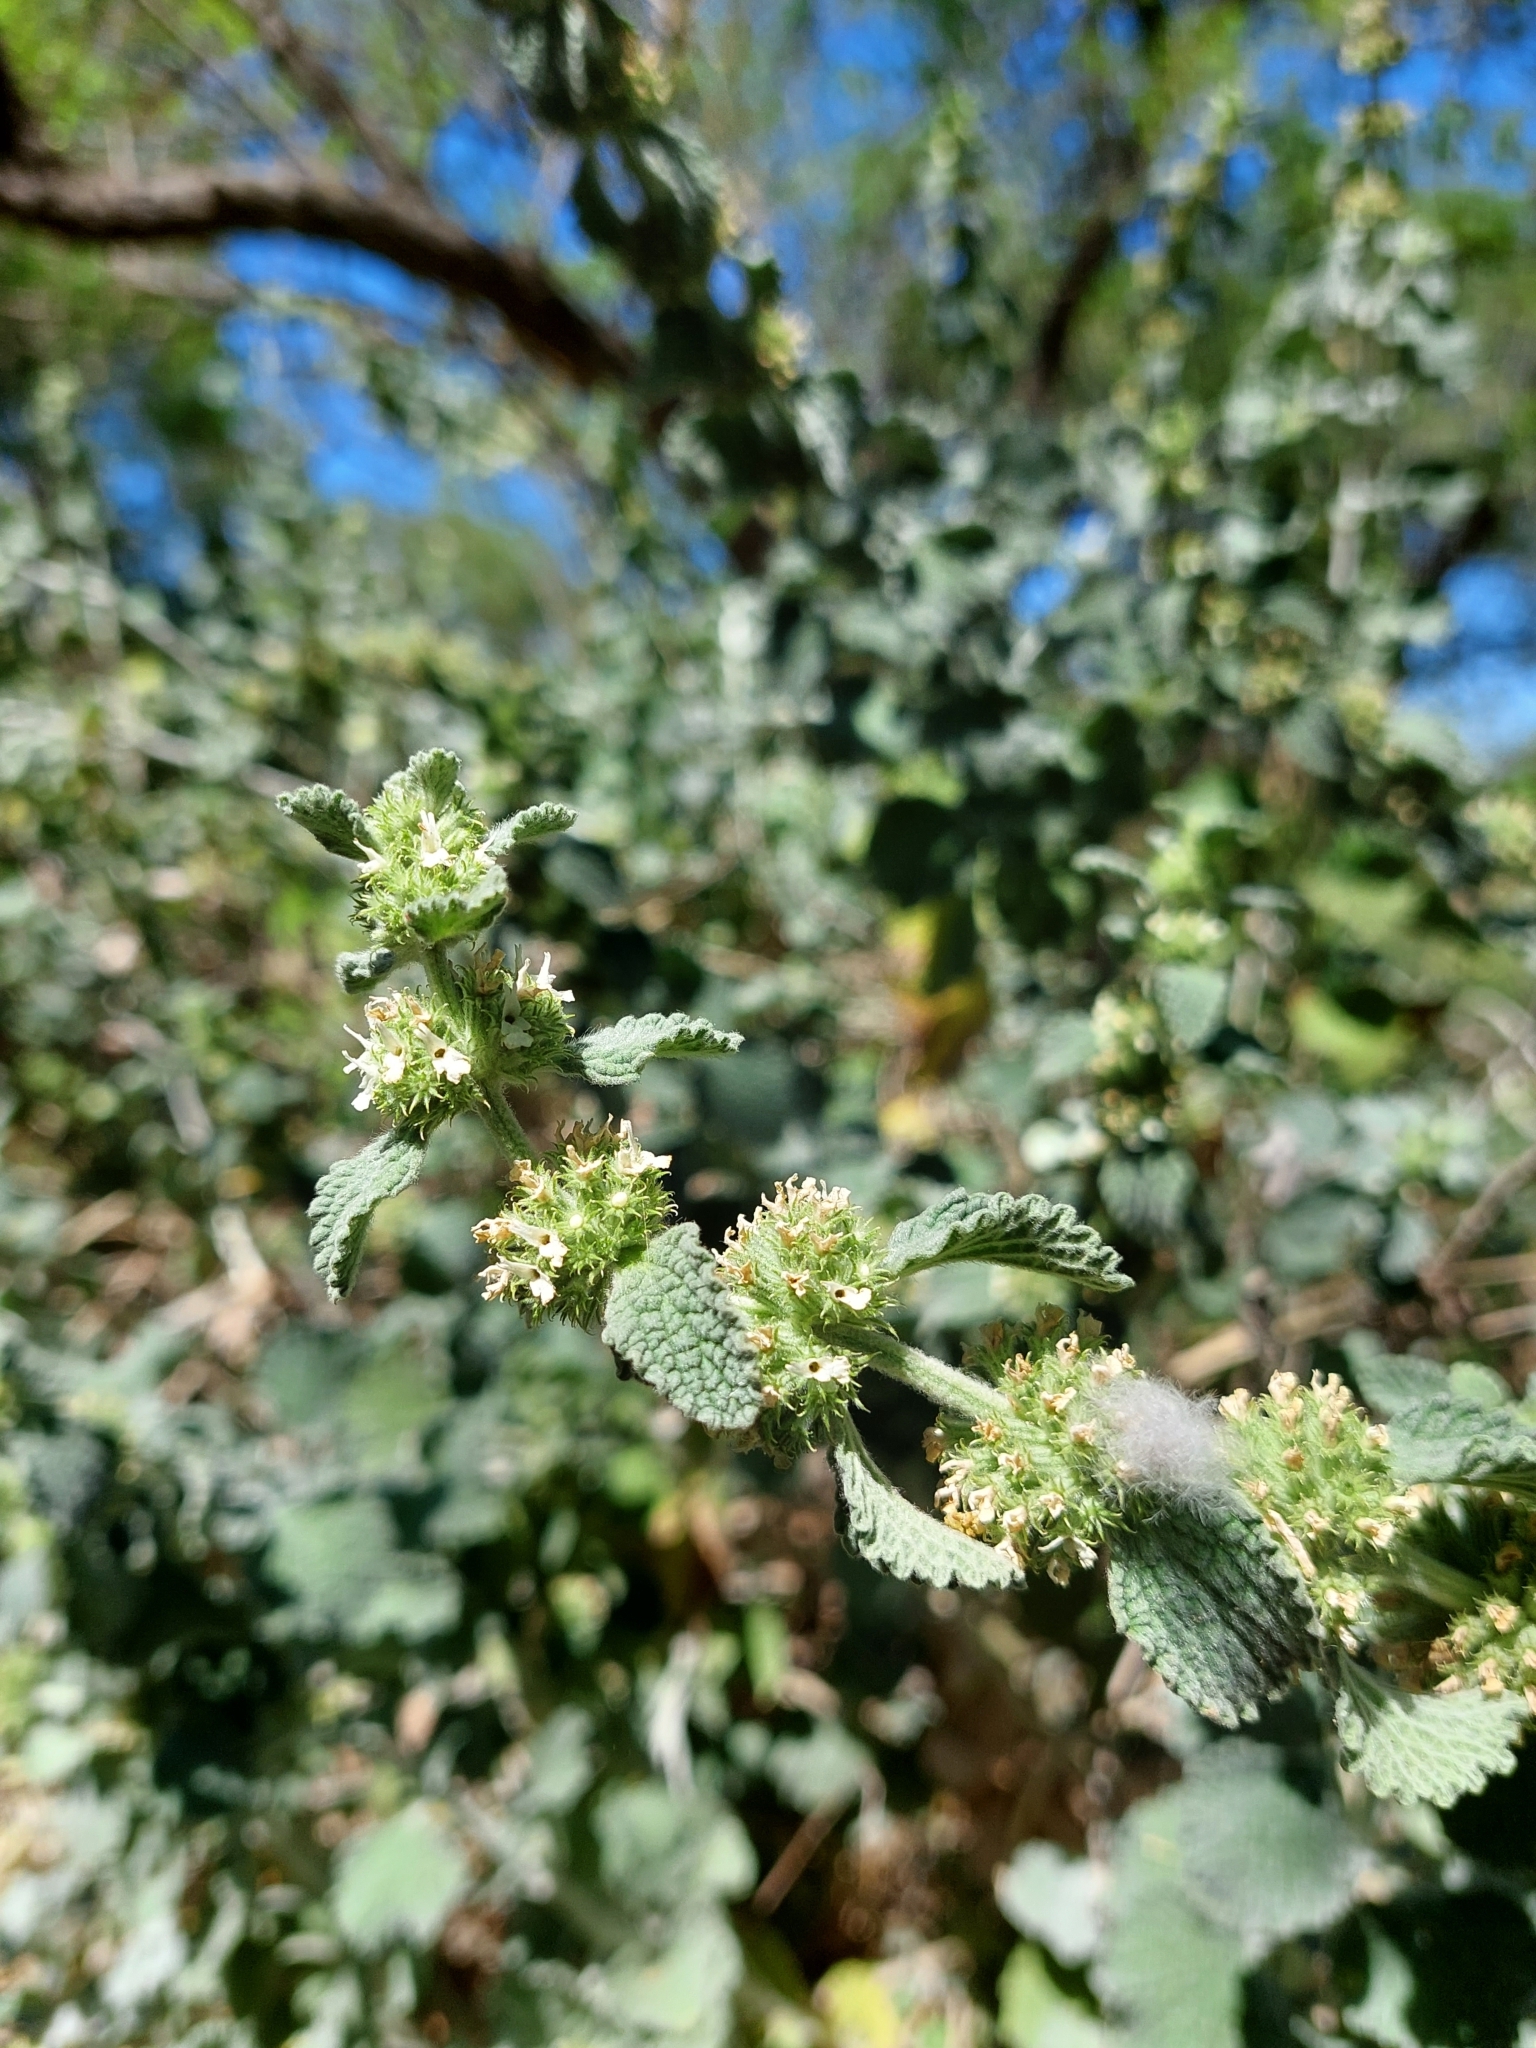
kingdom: Plantae
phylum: Tracheophyta
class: Magnoliopsida
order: Lamiales
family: Lamiaceae
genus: Marrubium
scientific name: Marrubium vulgare
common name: Horehound
